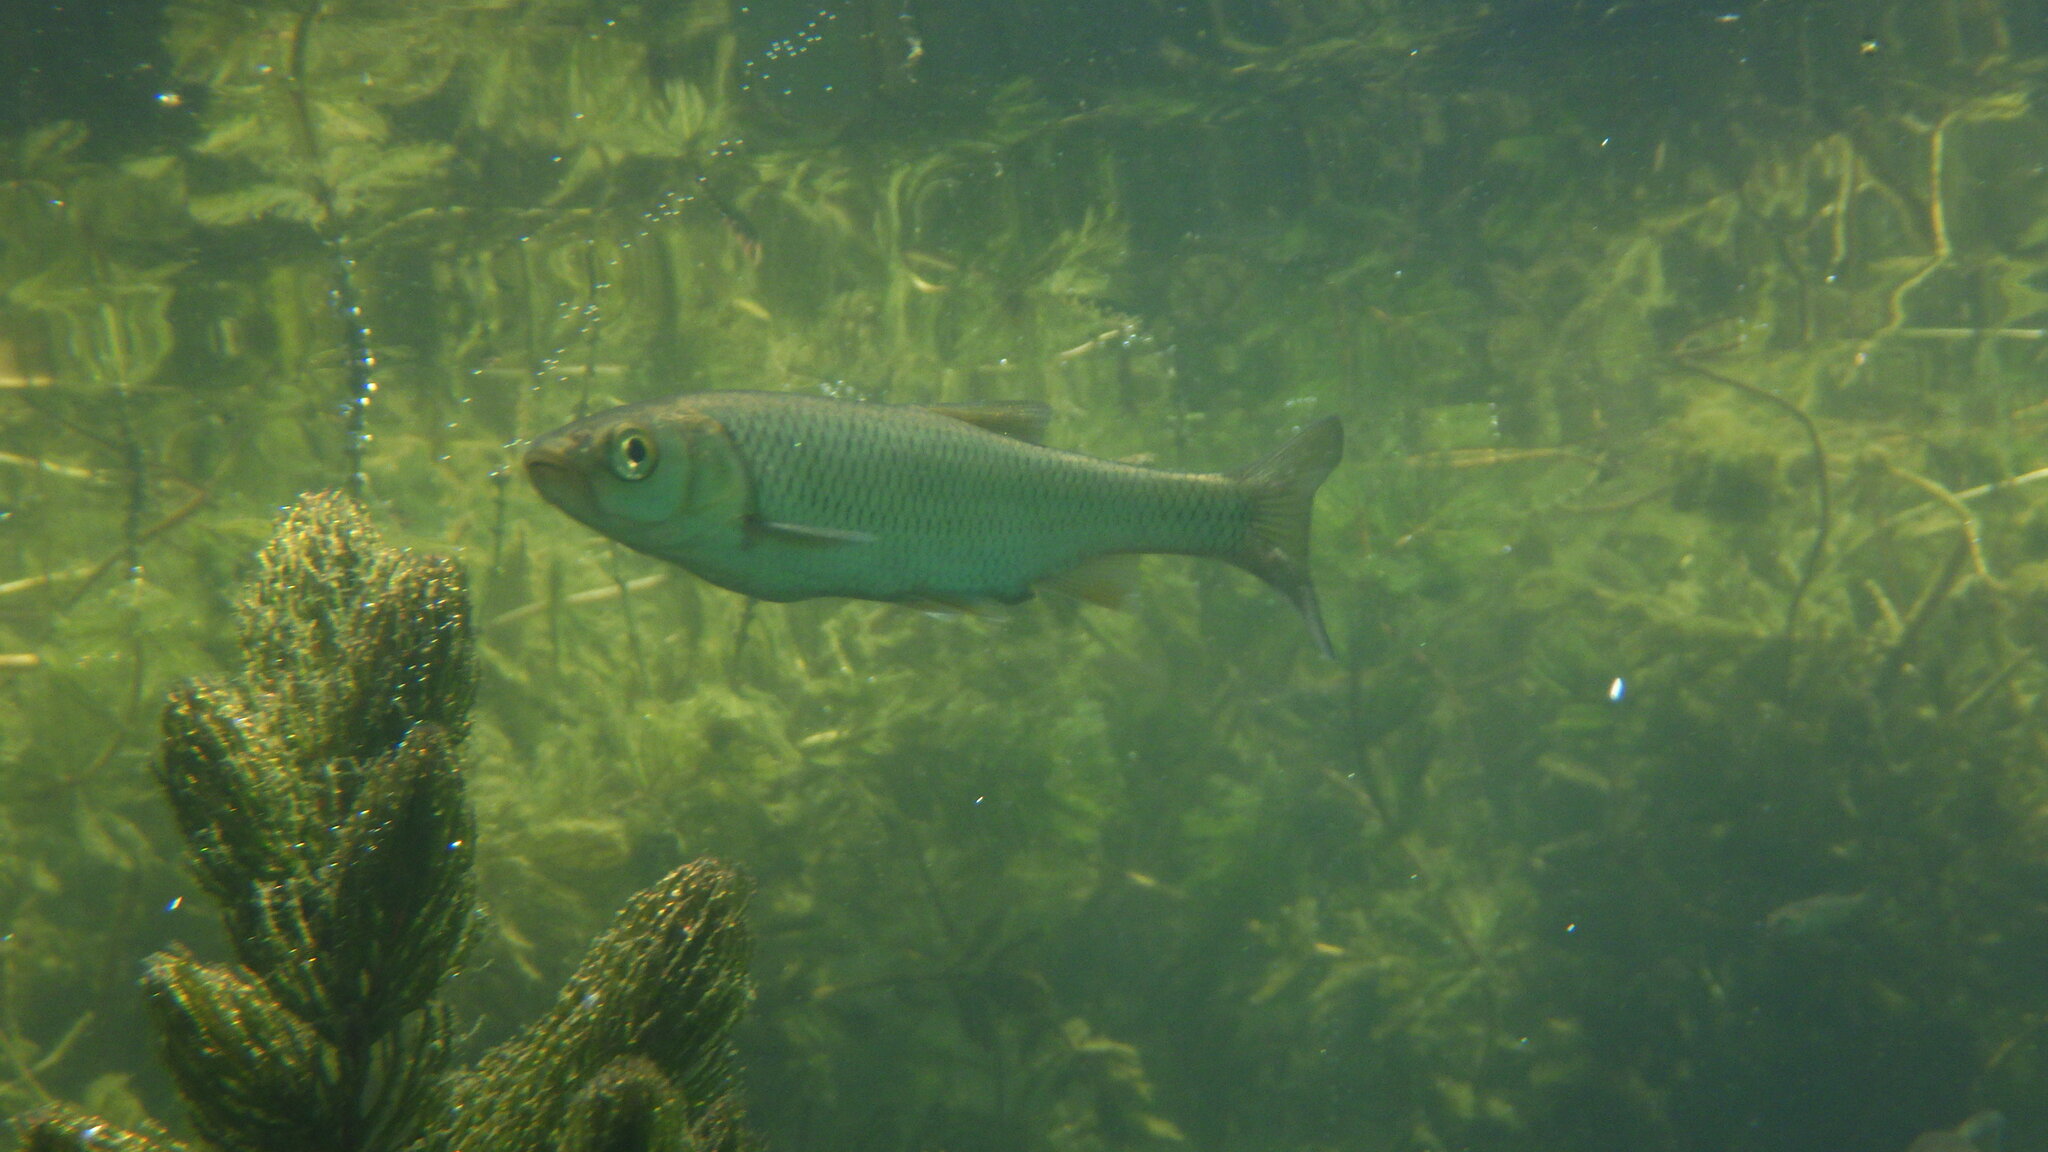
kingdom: Animalia
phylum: Chordata
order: Cypriniformes
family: Cyprinidae
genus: Squalius
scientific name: Squalius cephalus
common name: Chub
